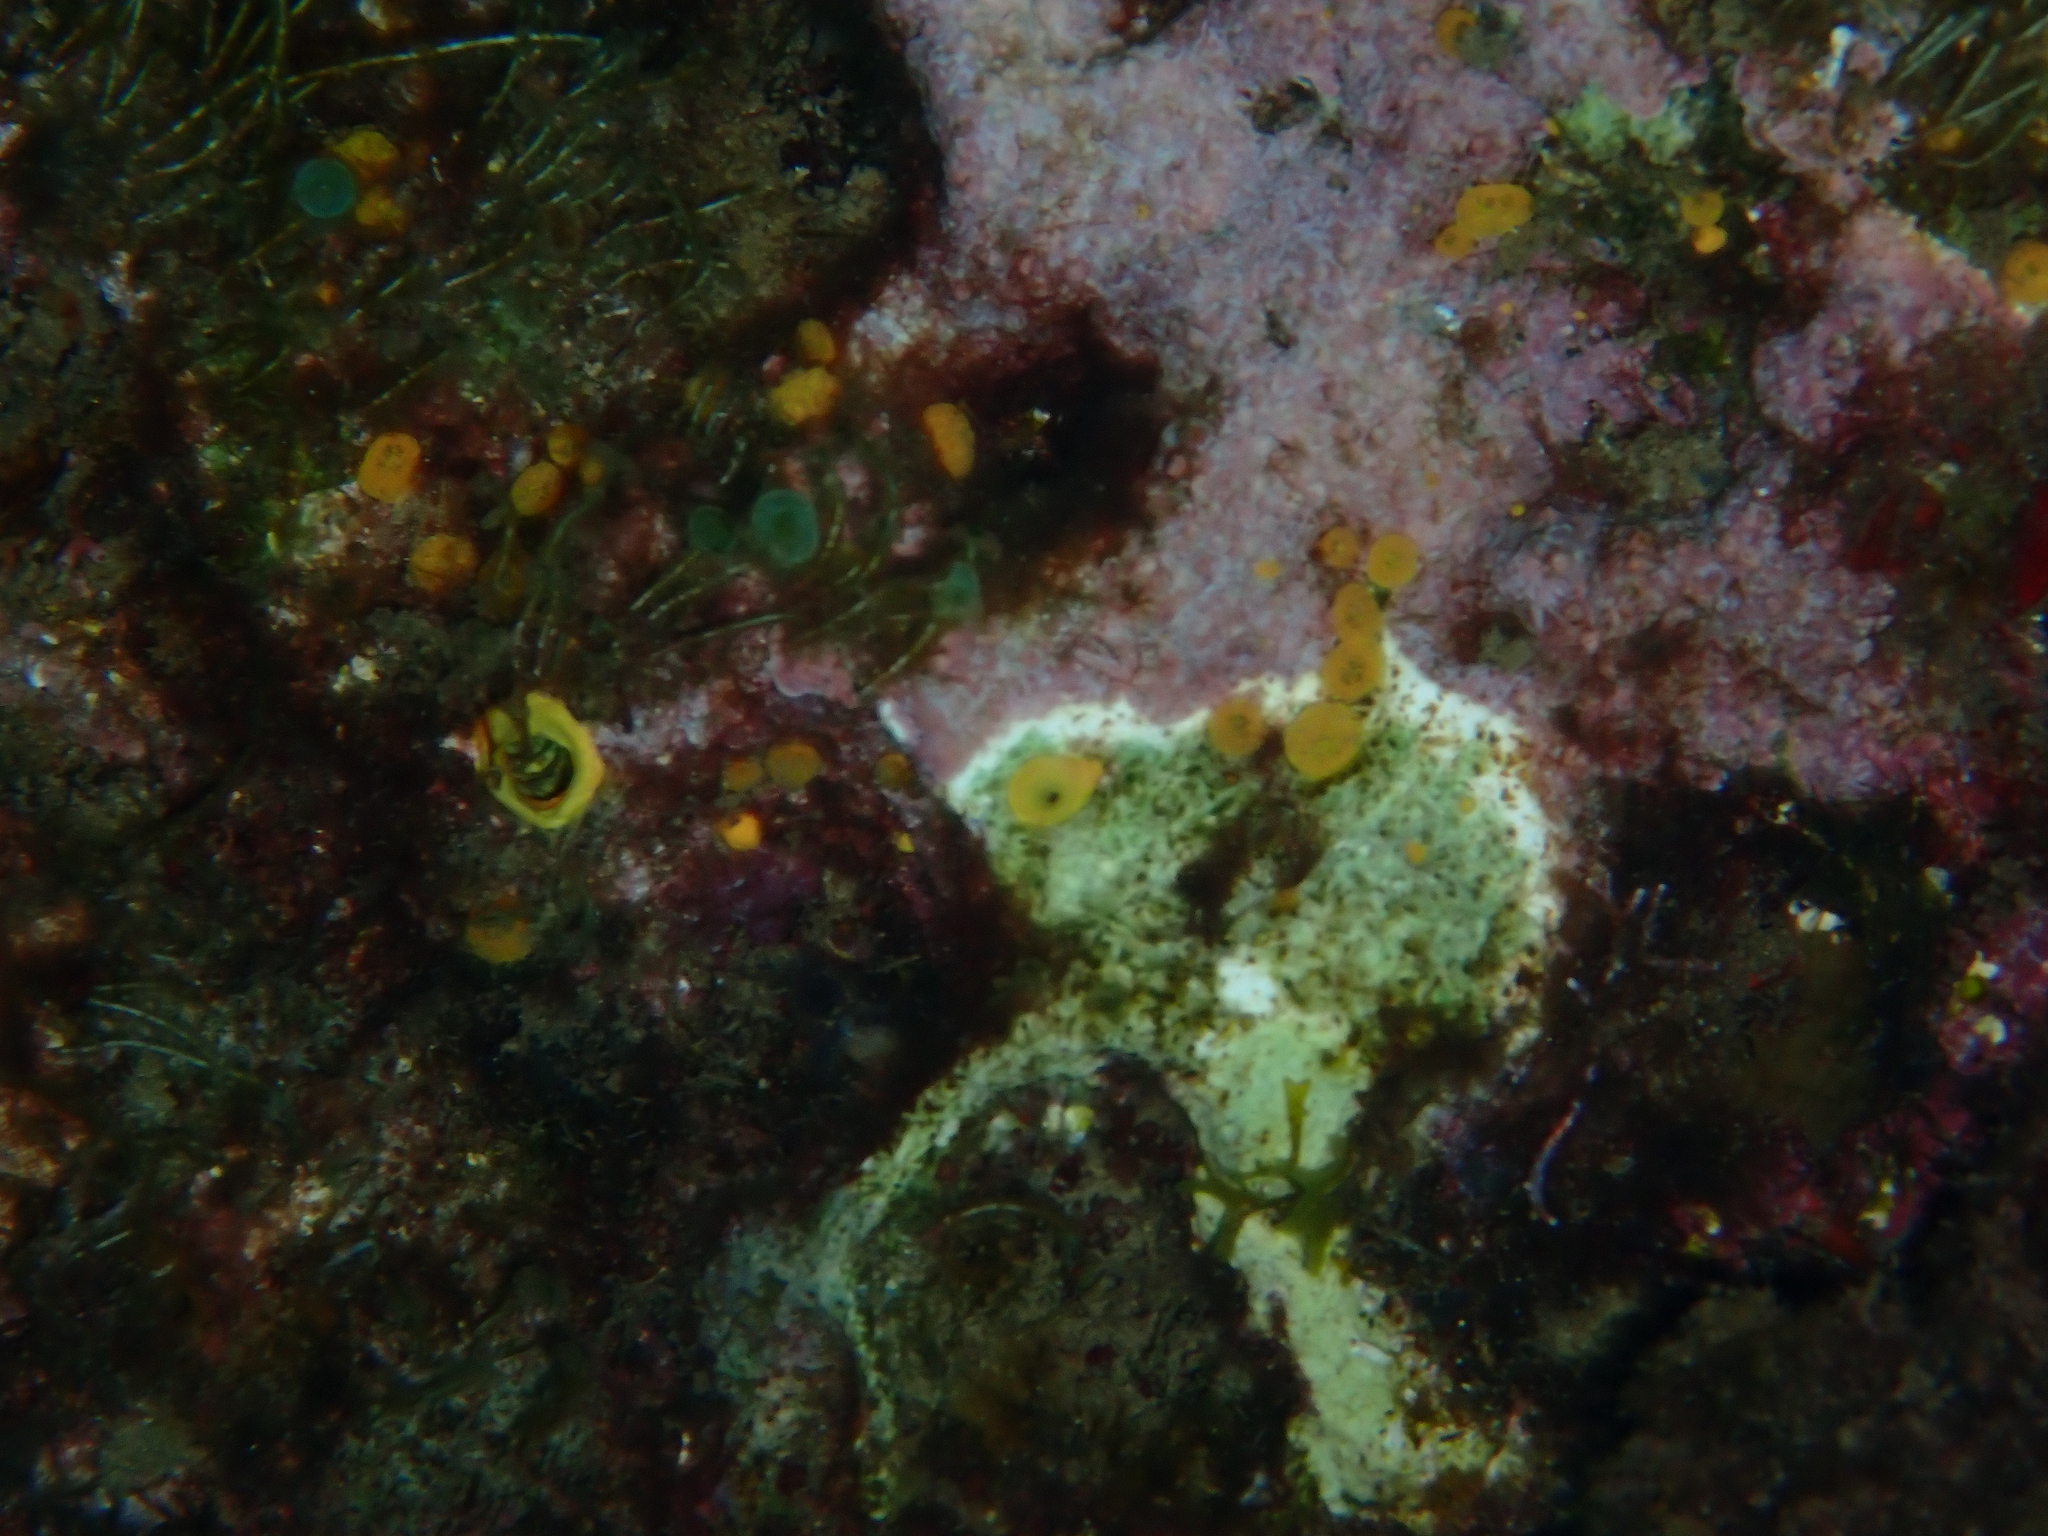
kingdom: Animalia
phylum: Porifera
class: Demospongiae
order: Clionaida
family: Clionaidae
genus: Cliona
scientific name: Cliona celata
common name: Boring sponge
